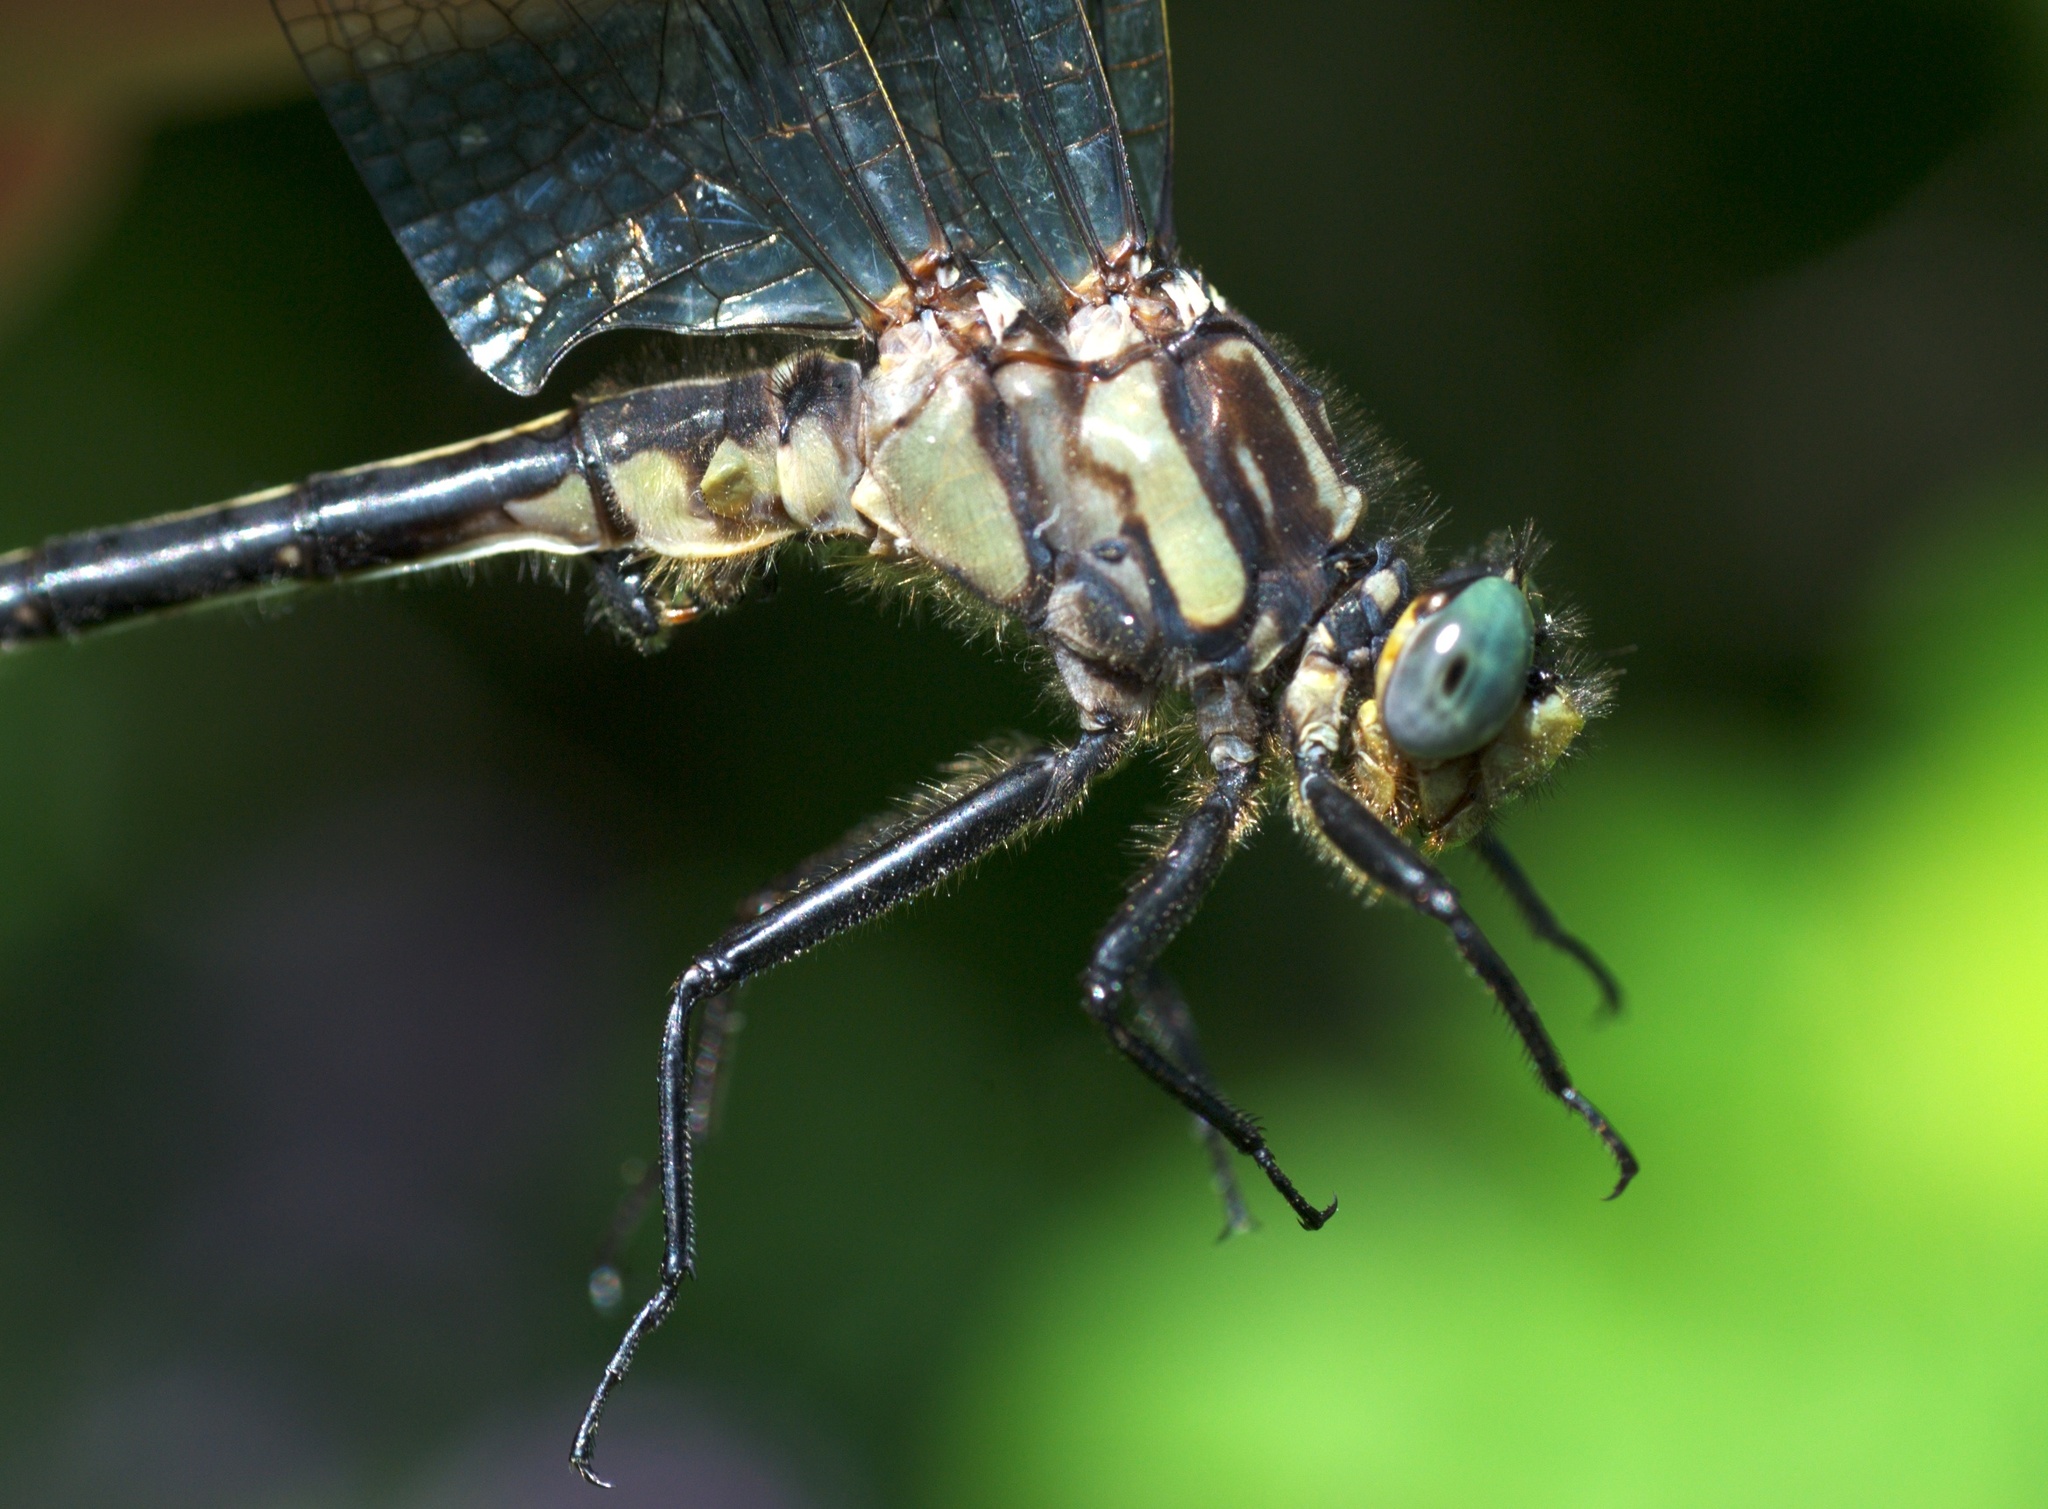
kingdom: Animalia
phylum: Arthropoda
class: Insecta
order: Odonata
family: Gomphidae
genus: Phanogomphus
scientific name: Phanogomphus descriptus
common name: Harpoon clubtail
